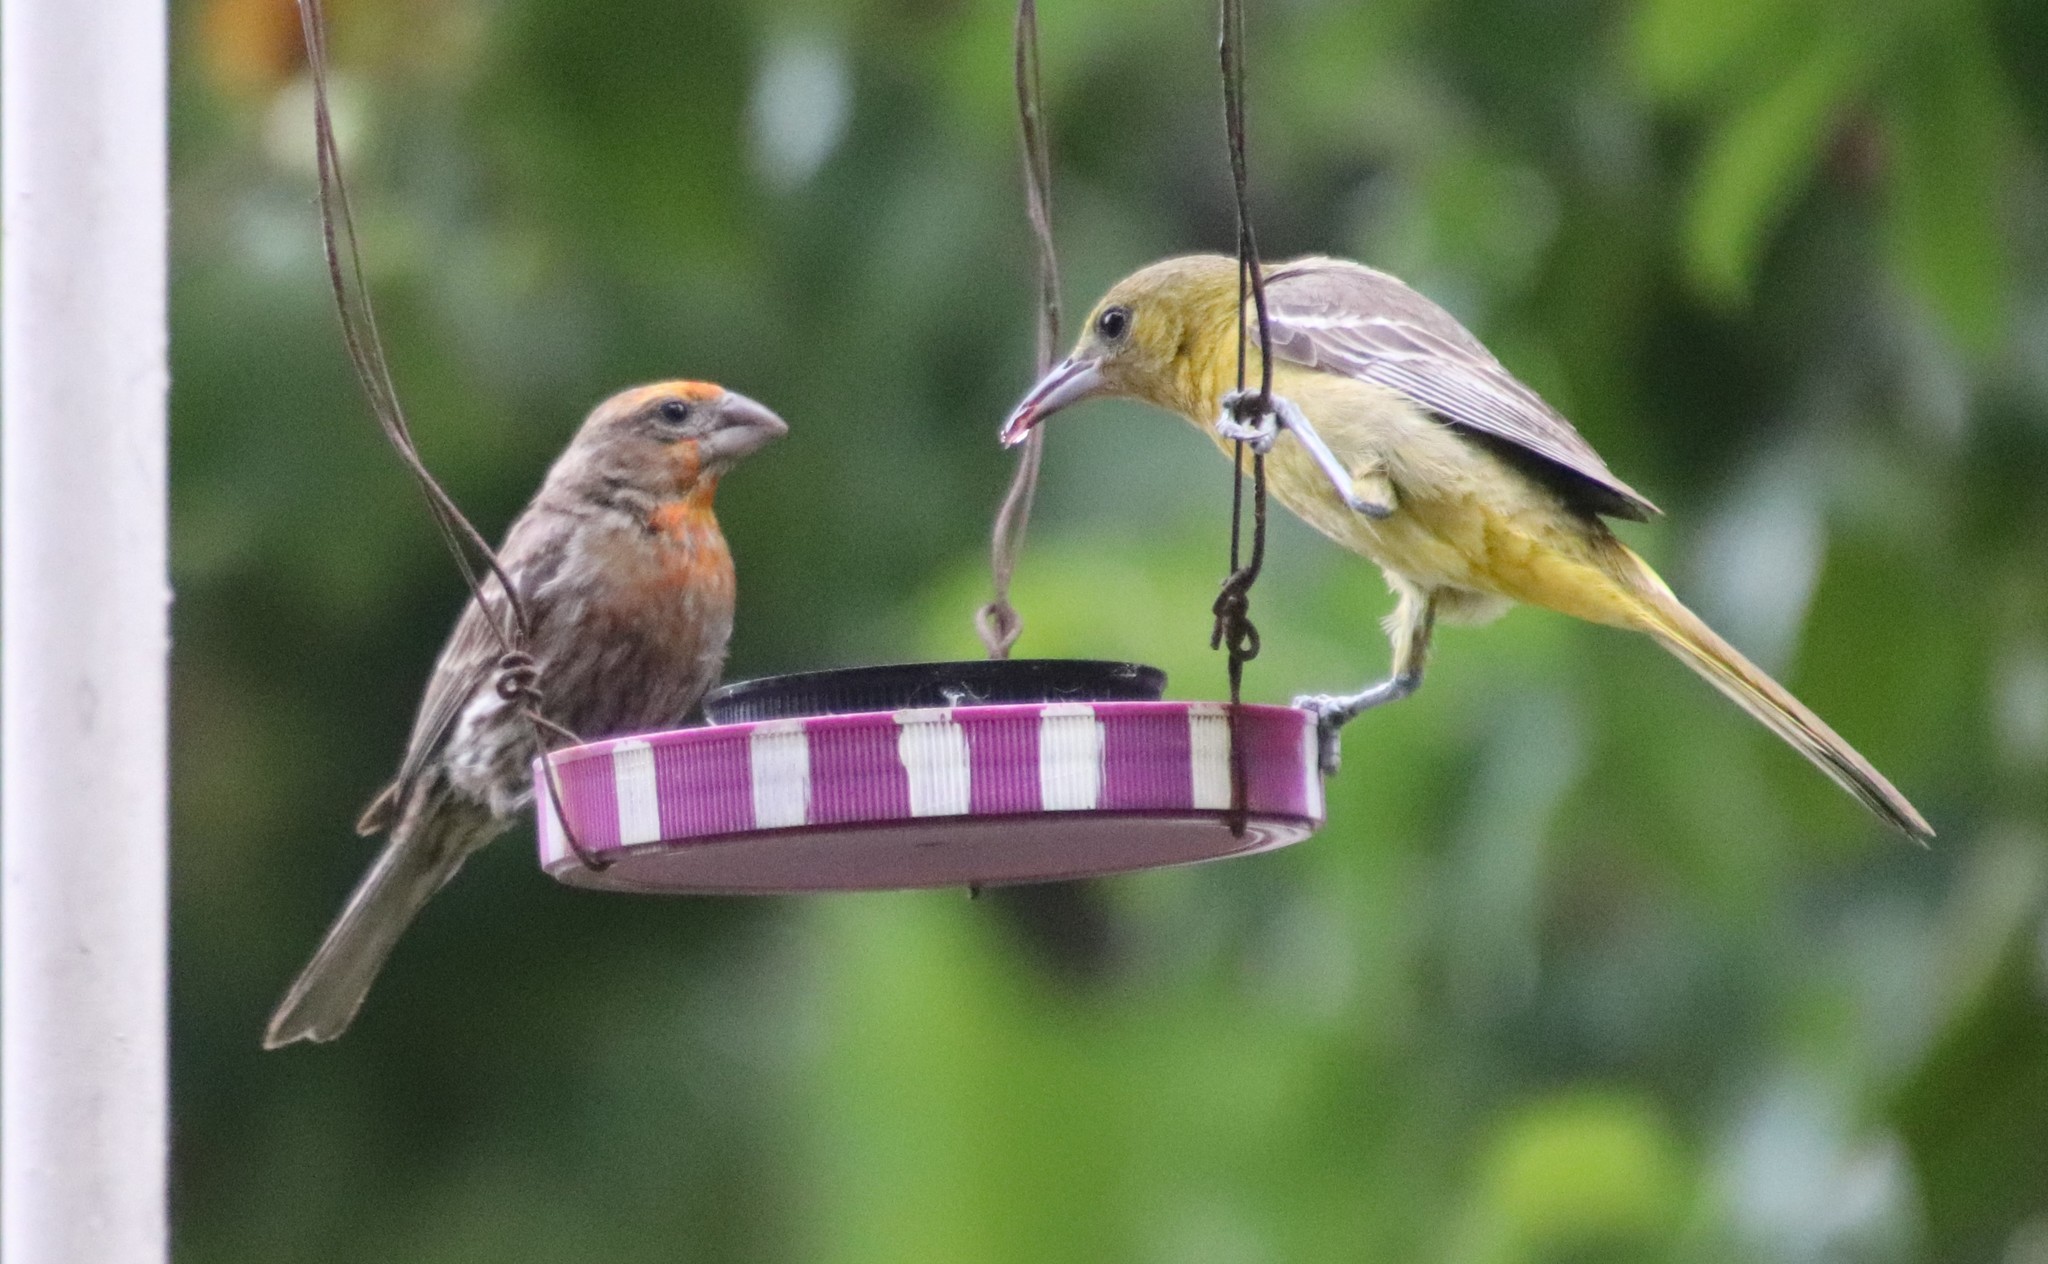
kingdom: Animalia
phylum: Chordata
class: Aves
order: Passeriformes
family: Fringillidae
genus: Haemorhous
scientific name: Haemorhous mexicanus
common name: House finch
